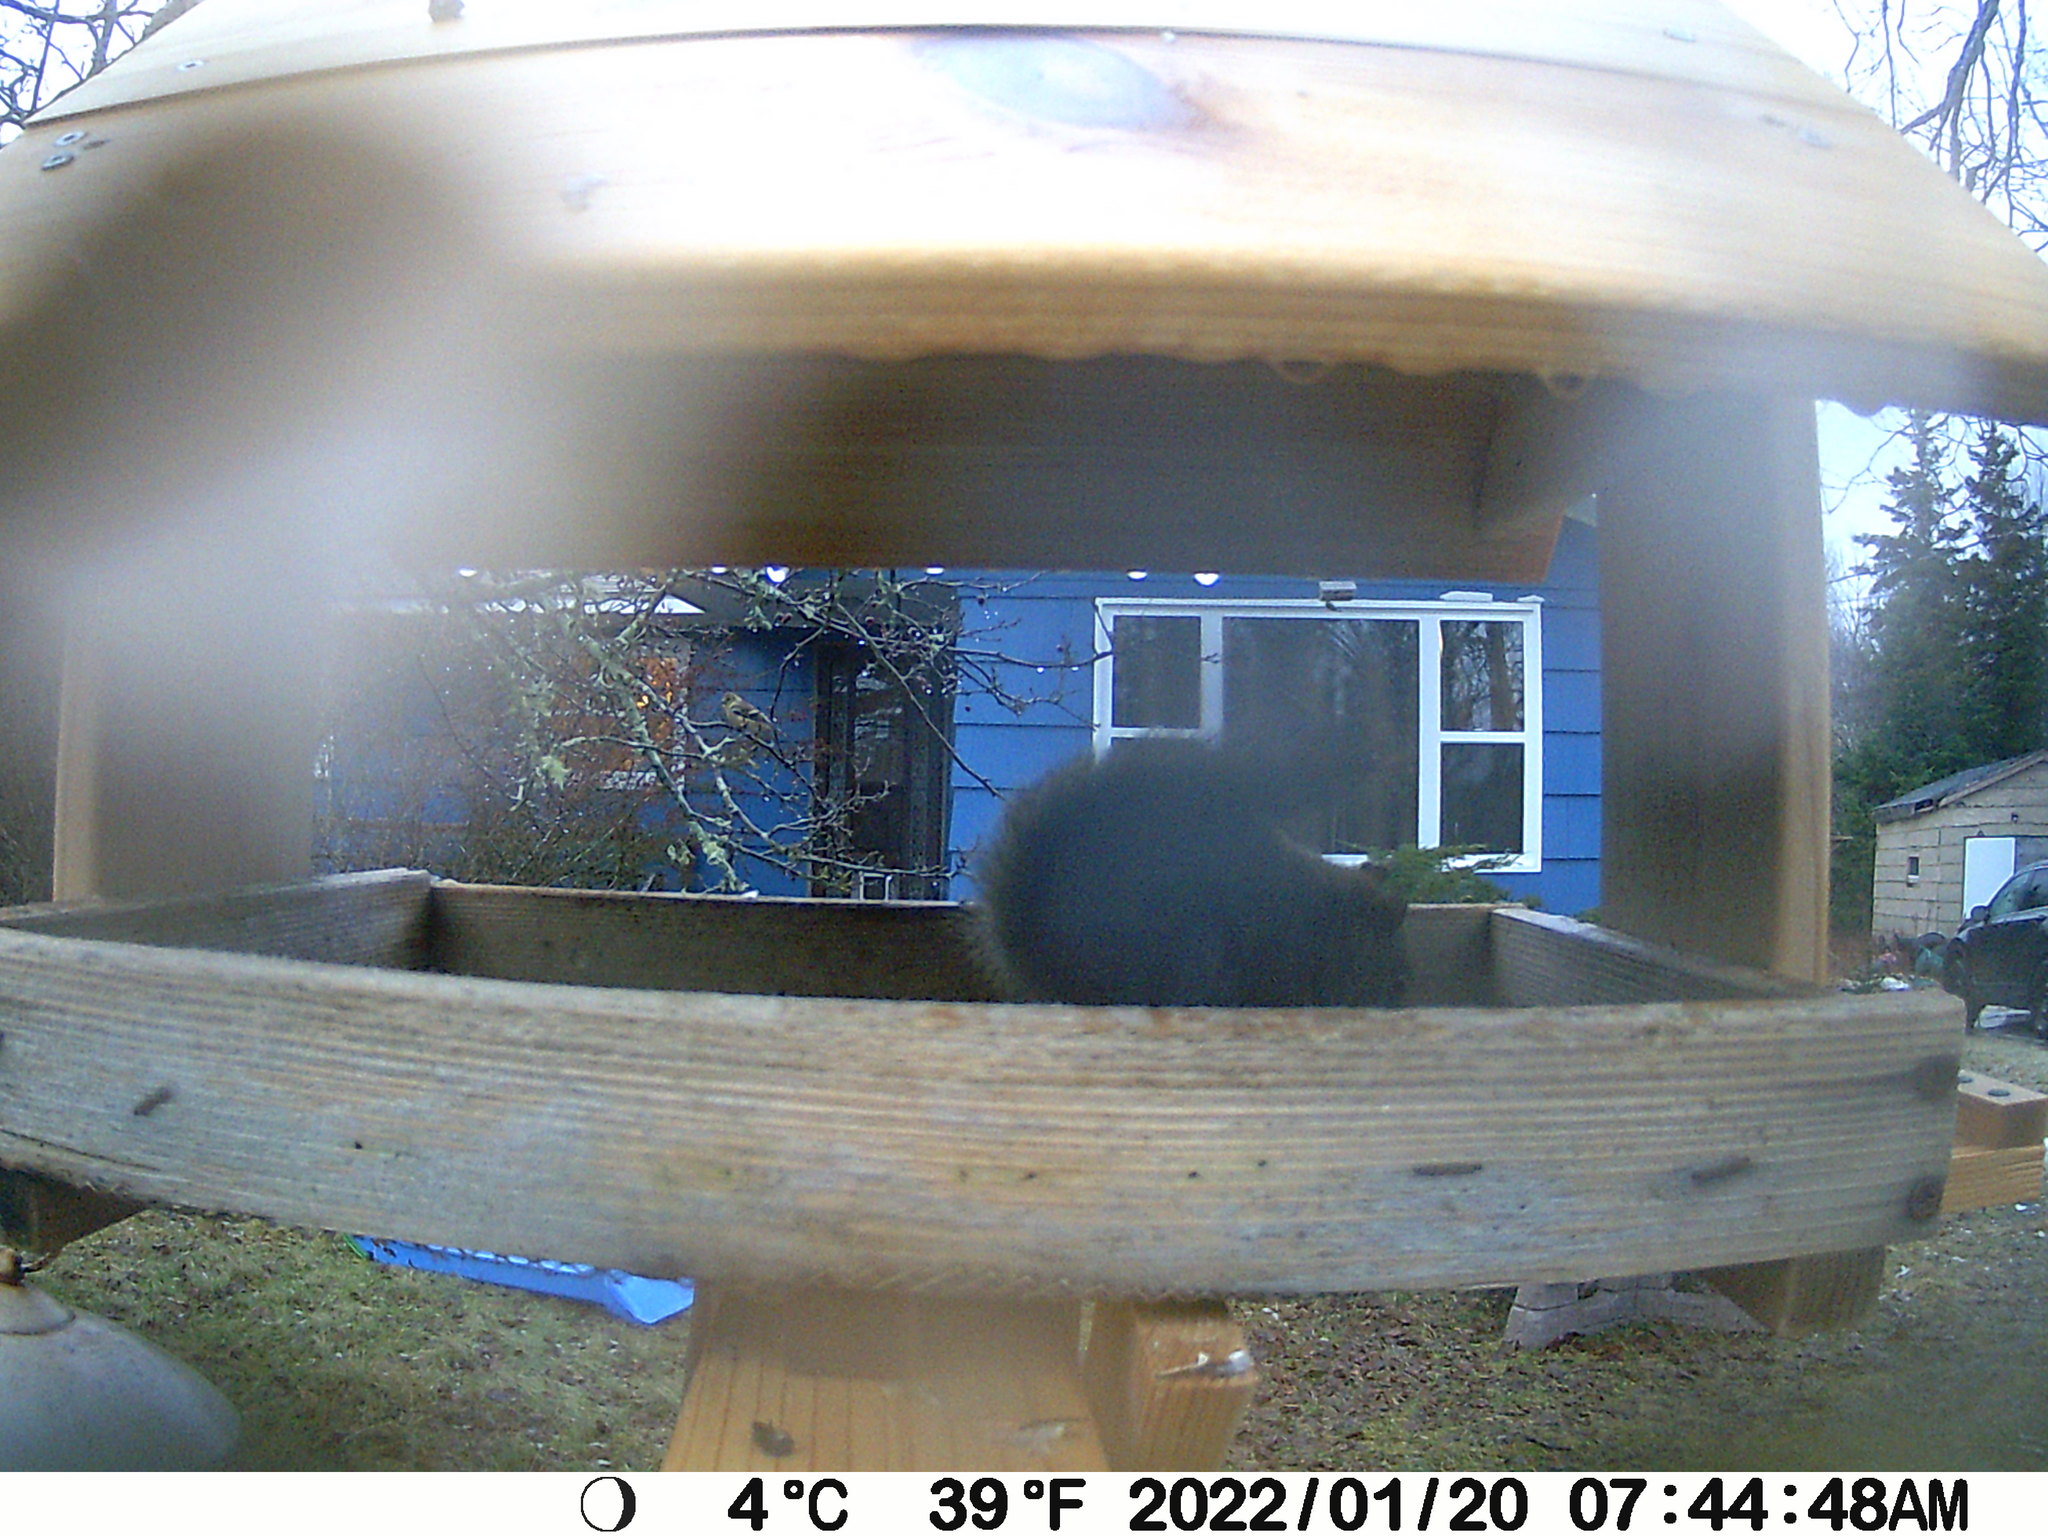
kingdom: Animalia
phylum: Chordata
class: Mammalia
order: Rodentia
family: Sciuridae
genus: Tamiasciurus
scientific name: Tamiasciurus hudsonicus
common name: Red squirrel
